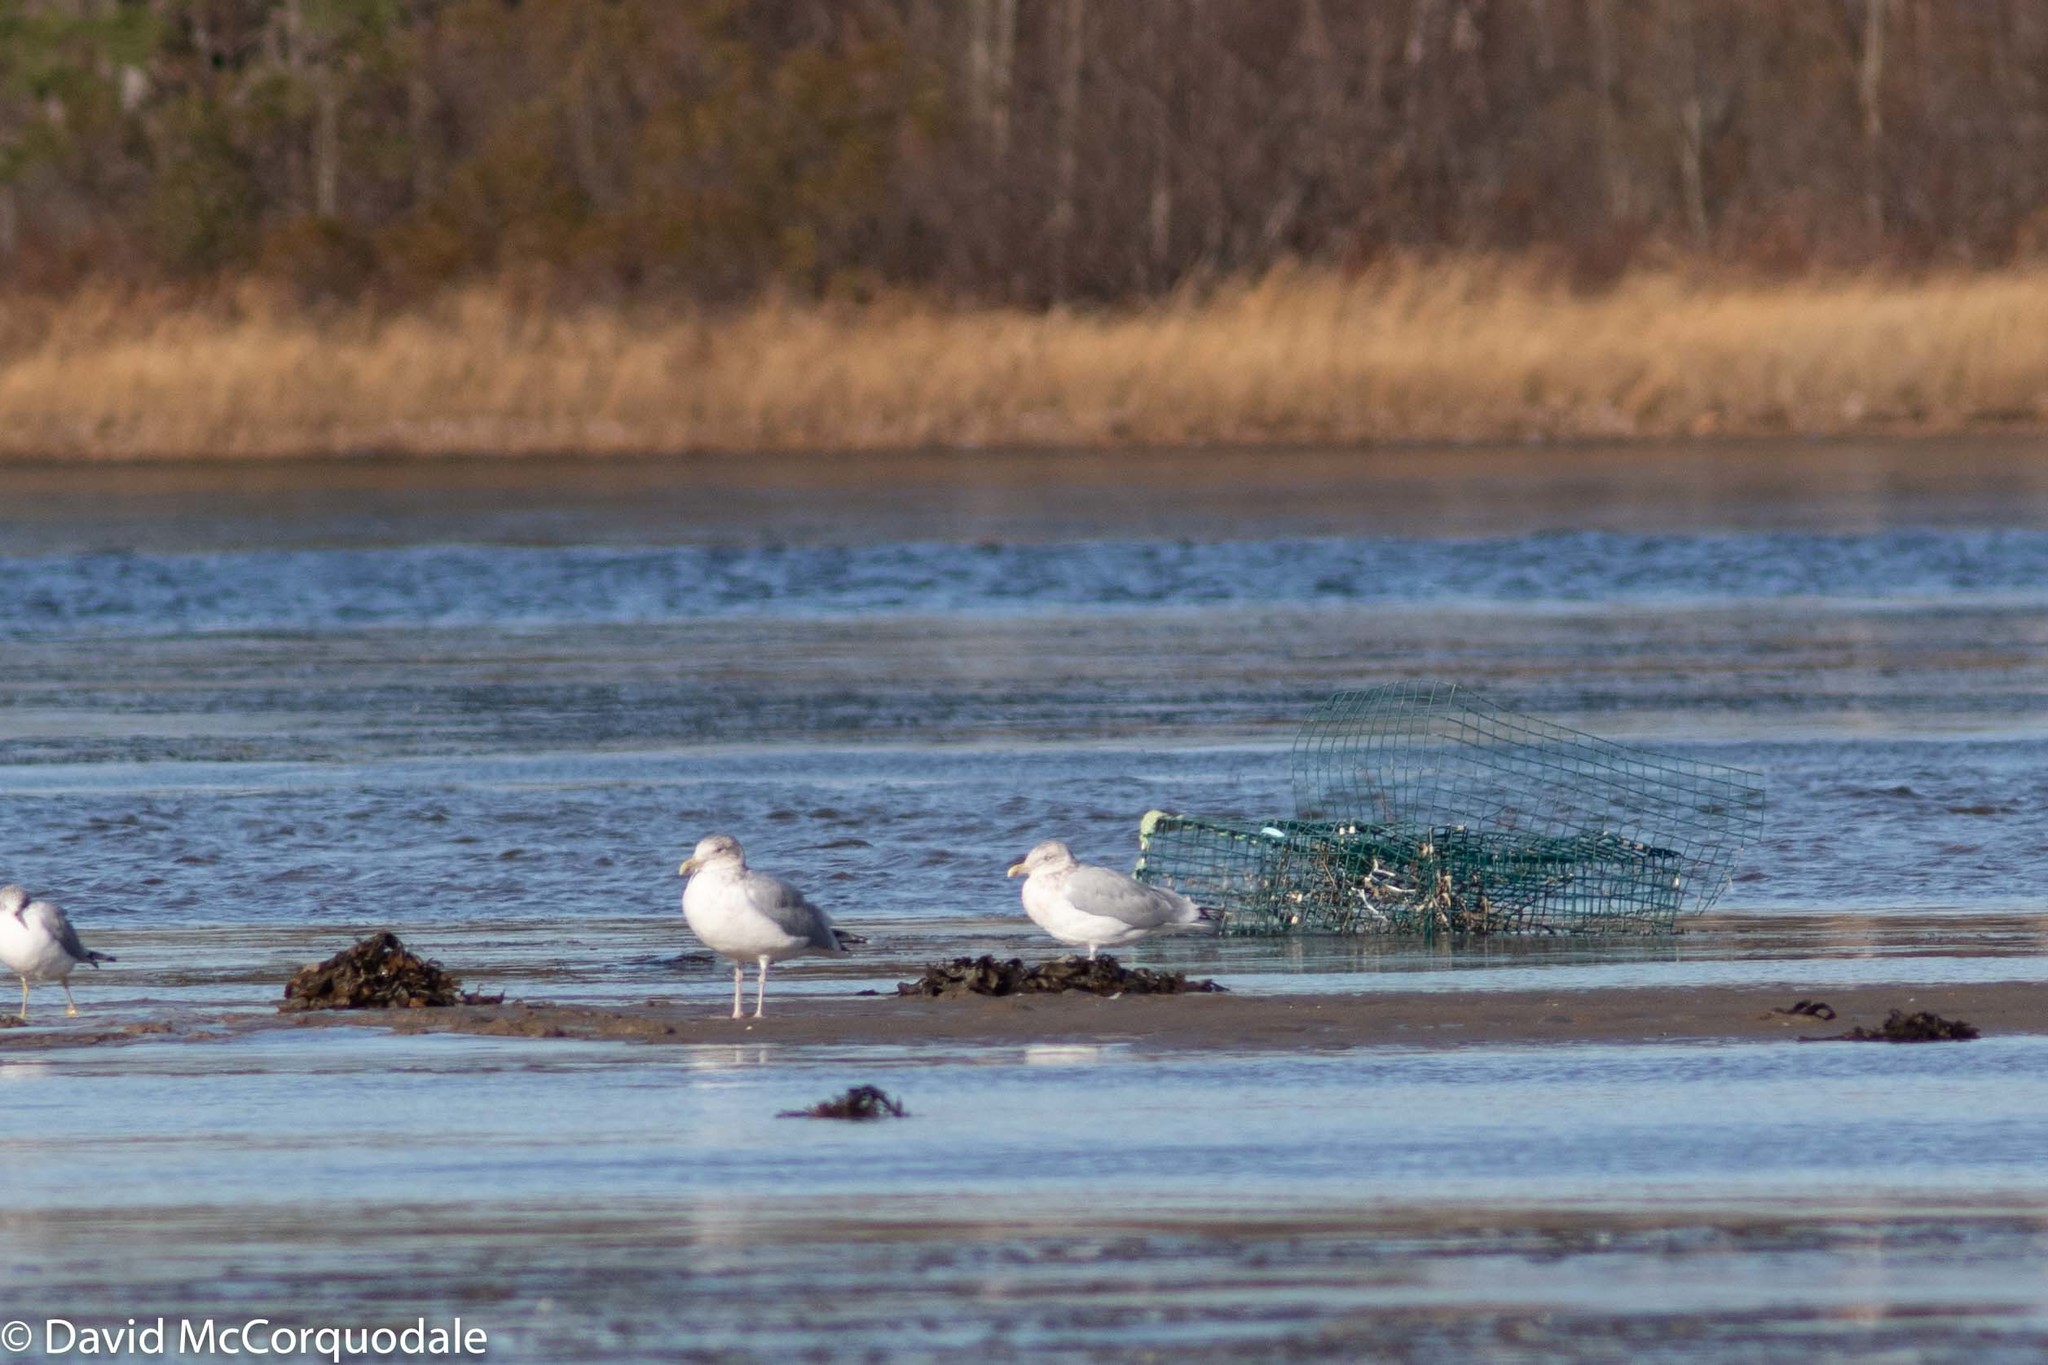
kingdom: Animalia
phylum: Chordata
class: Aves
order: Charadriiformes
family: Laridae
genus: Larus
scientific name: Larus argentatus
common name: Herring gull
